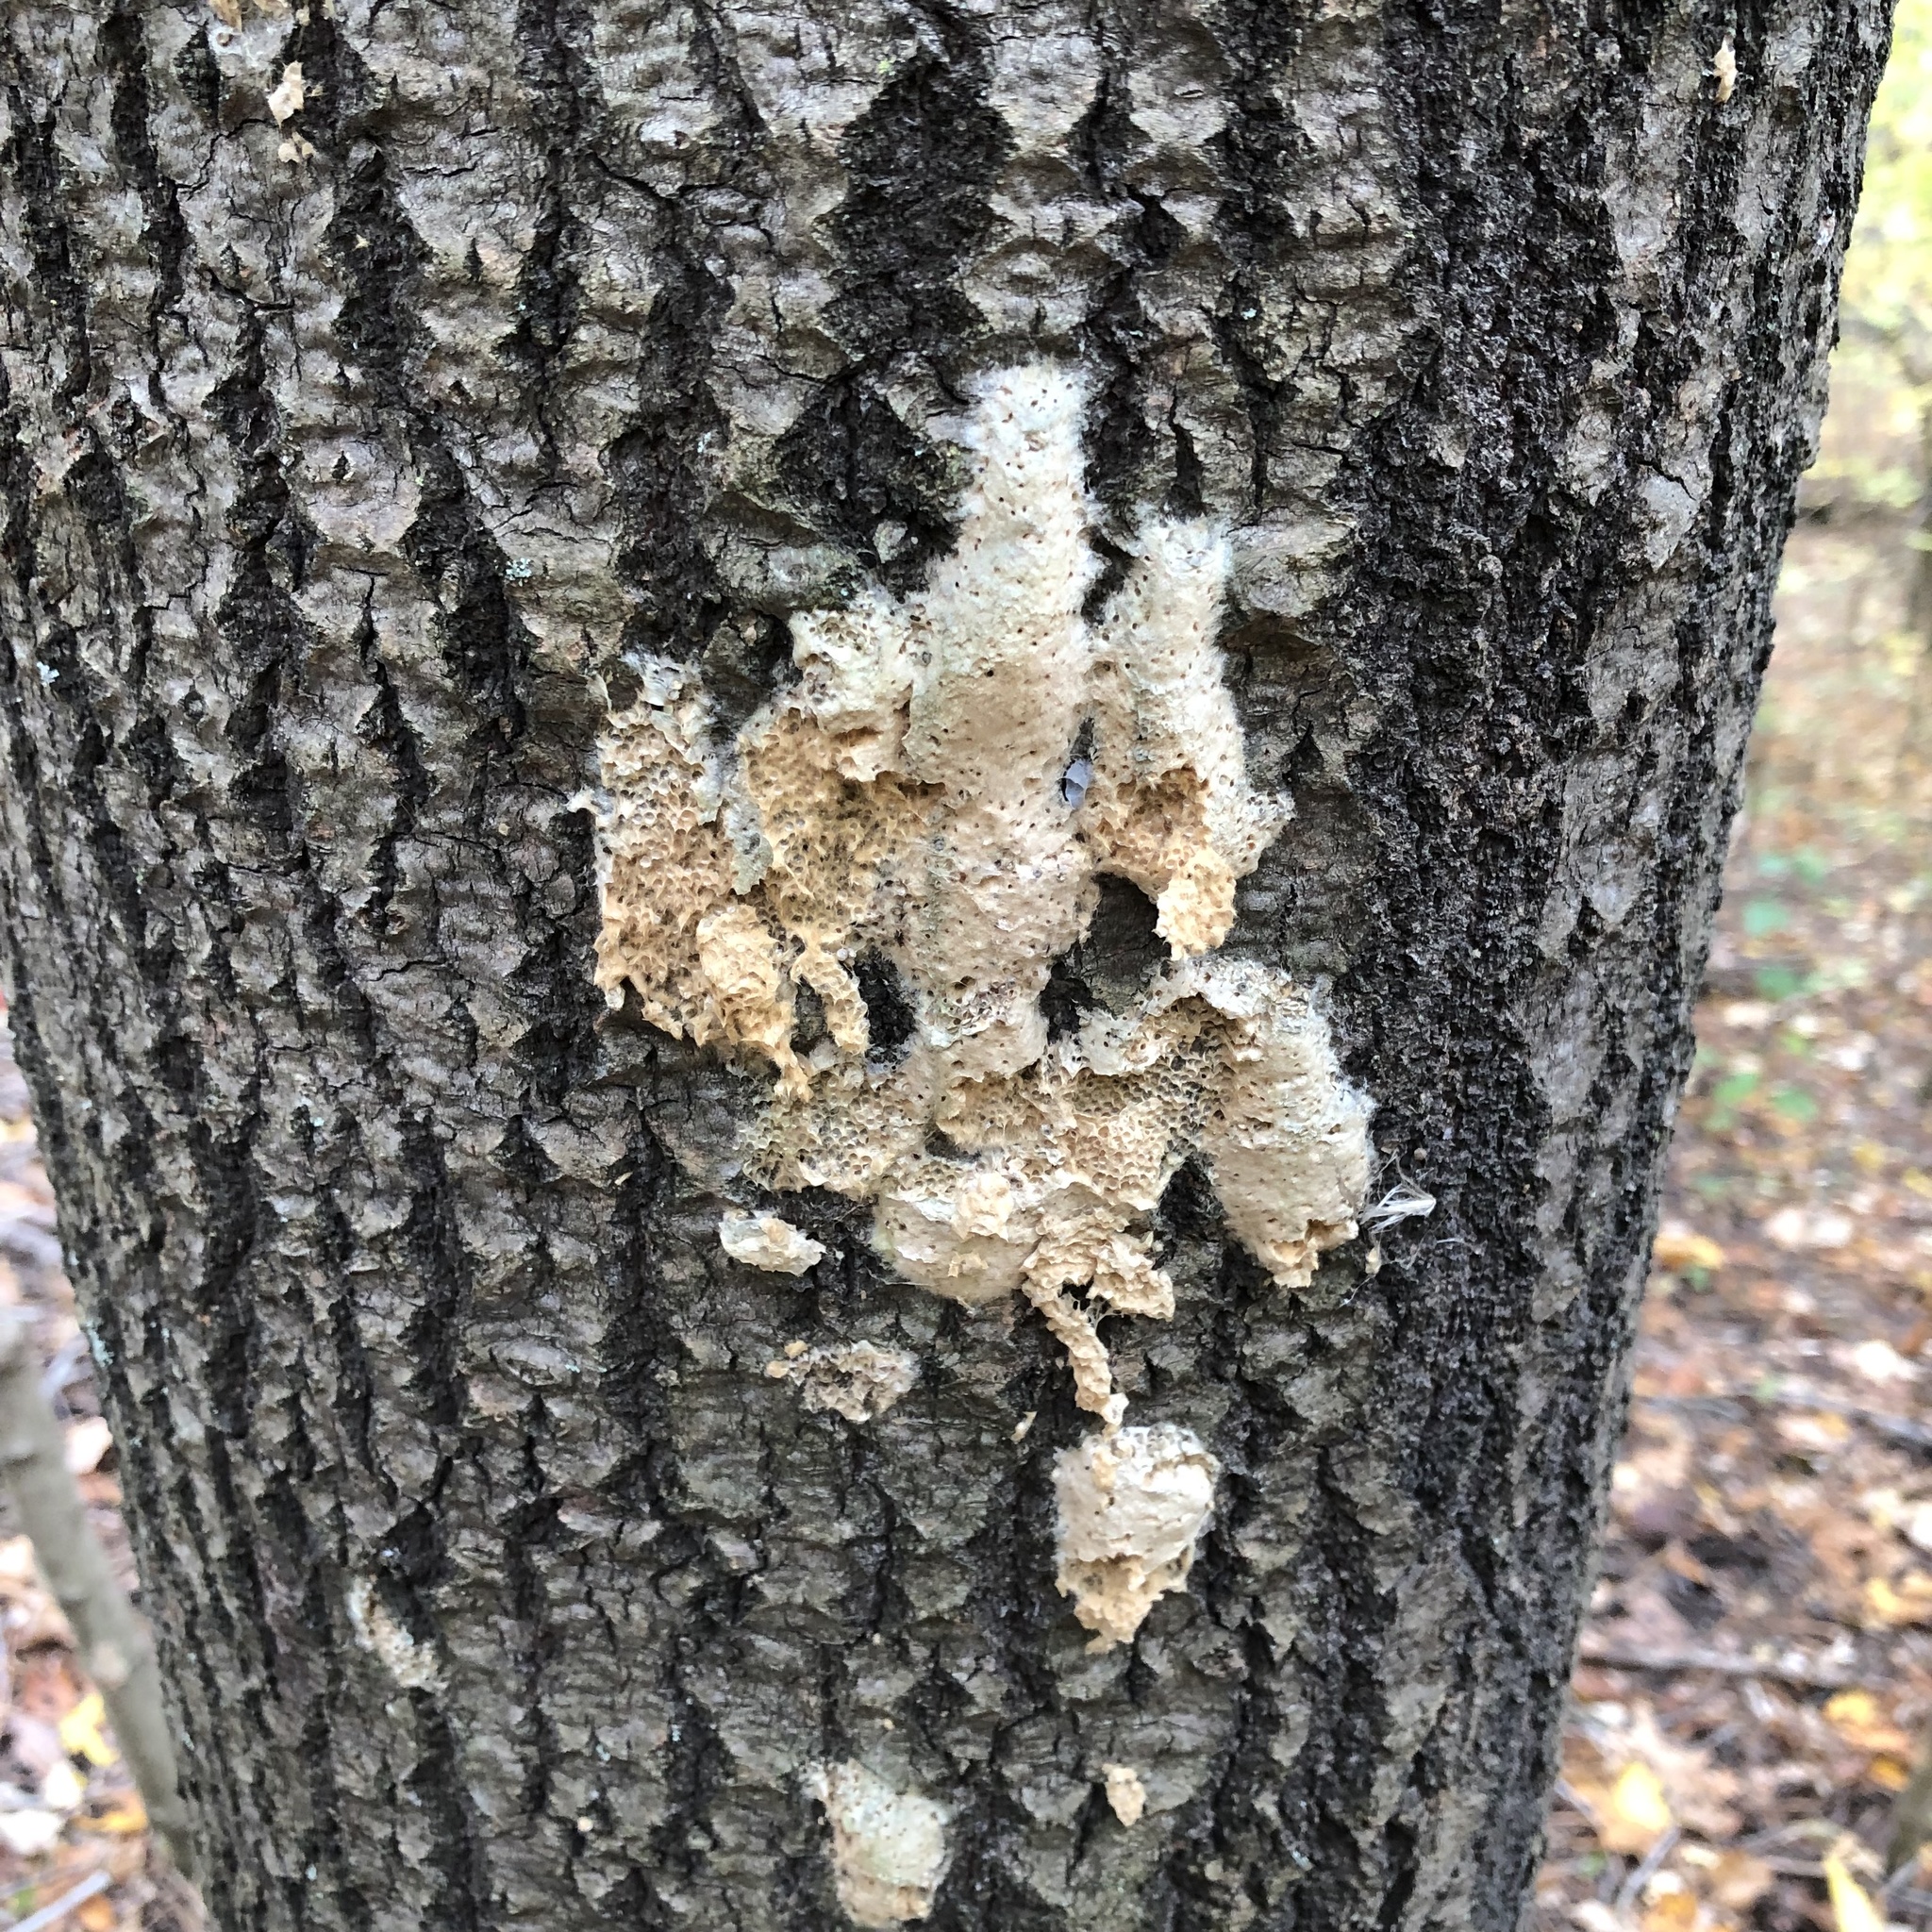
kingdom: Animalia
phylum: Arthropoda
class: Insecta
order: Lepidoptera
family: Erebidae
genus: Lymantria
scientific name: Lymantria dispar
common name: Gypsy moth
